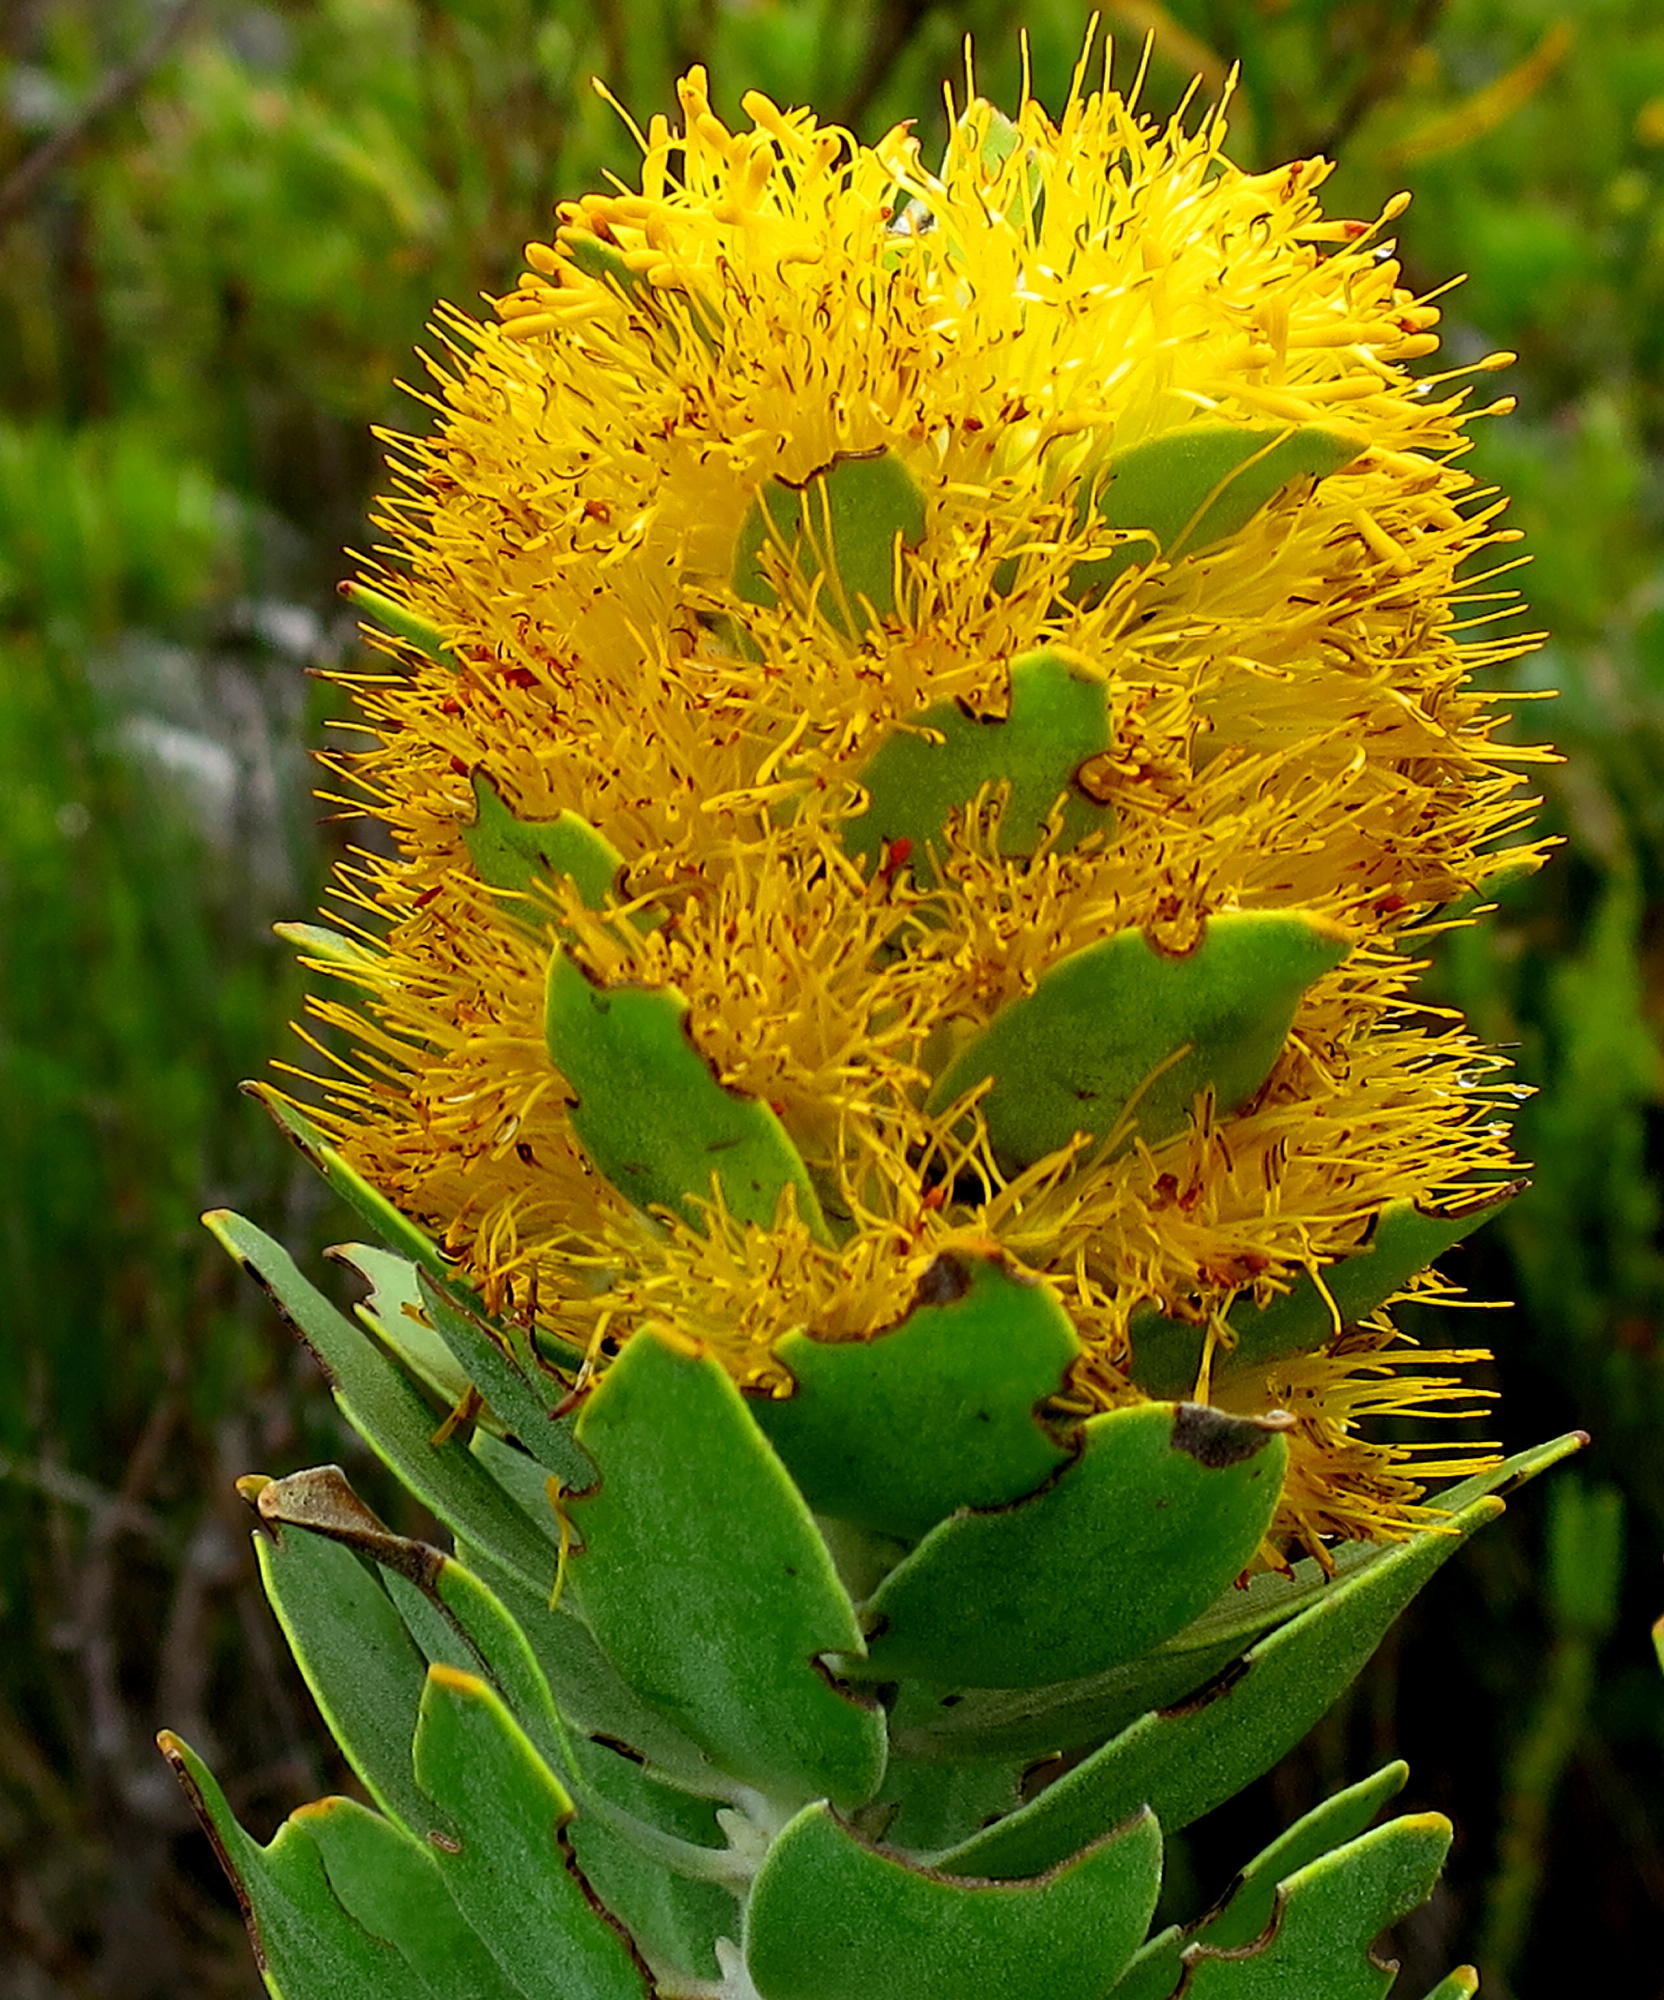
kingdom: Plantae
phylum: Tracheophyta
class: Magnoliopsida
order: Proteales
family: Proteaceae
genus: Mimetes
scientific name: Mimetes chrysanthus
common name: Golden pagoda
